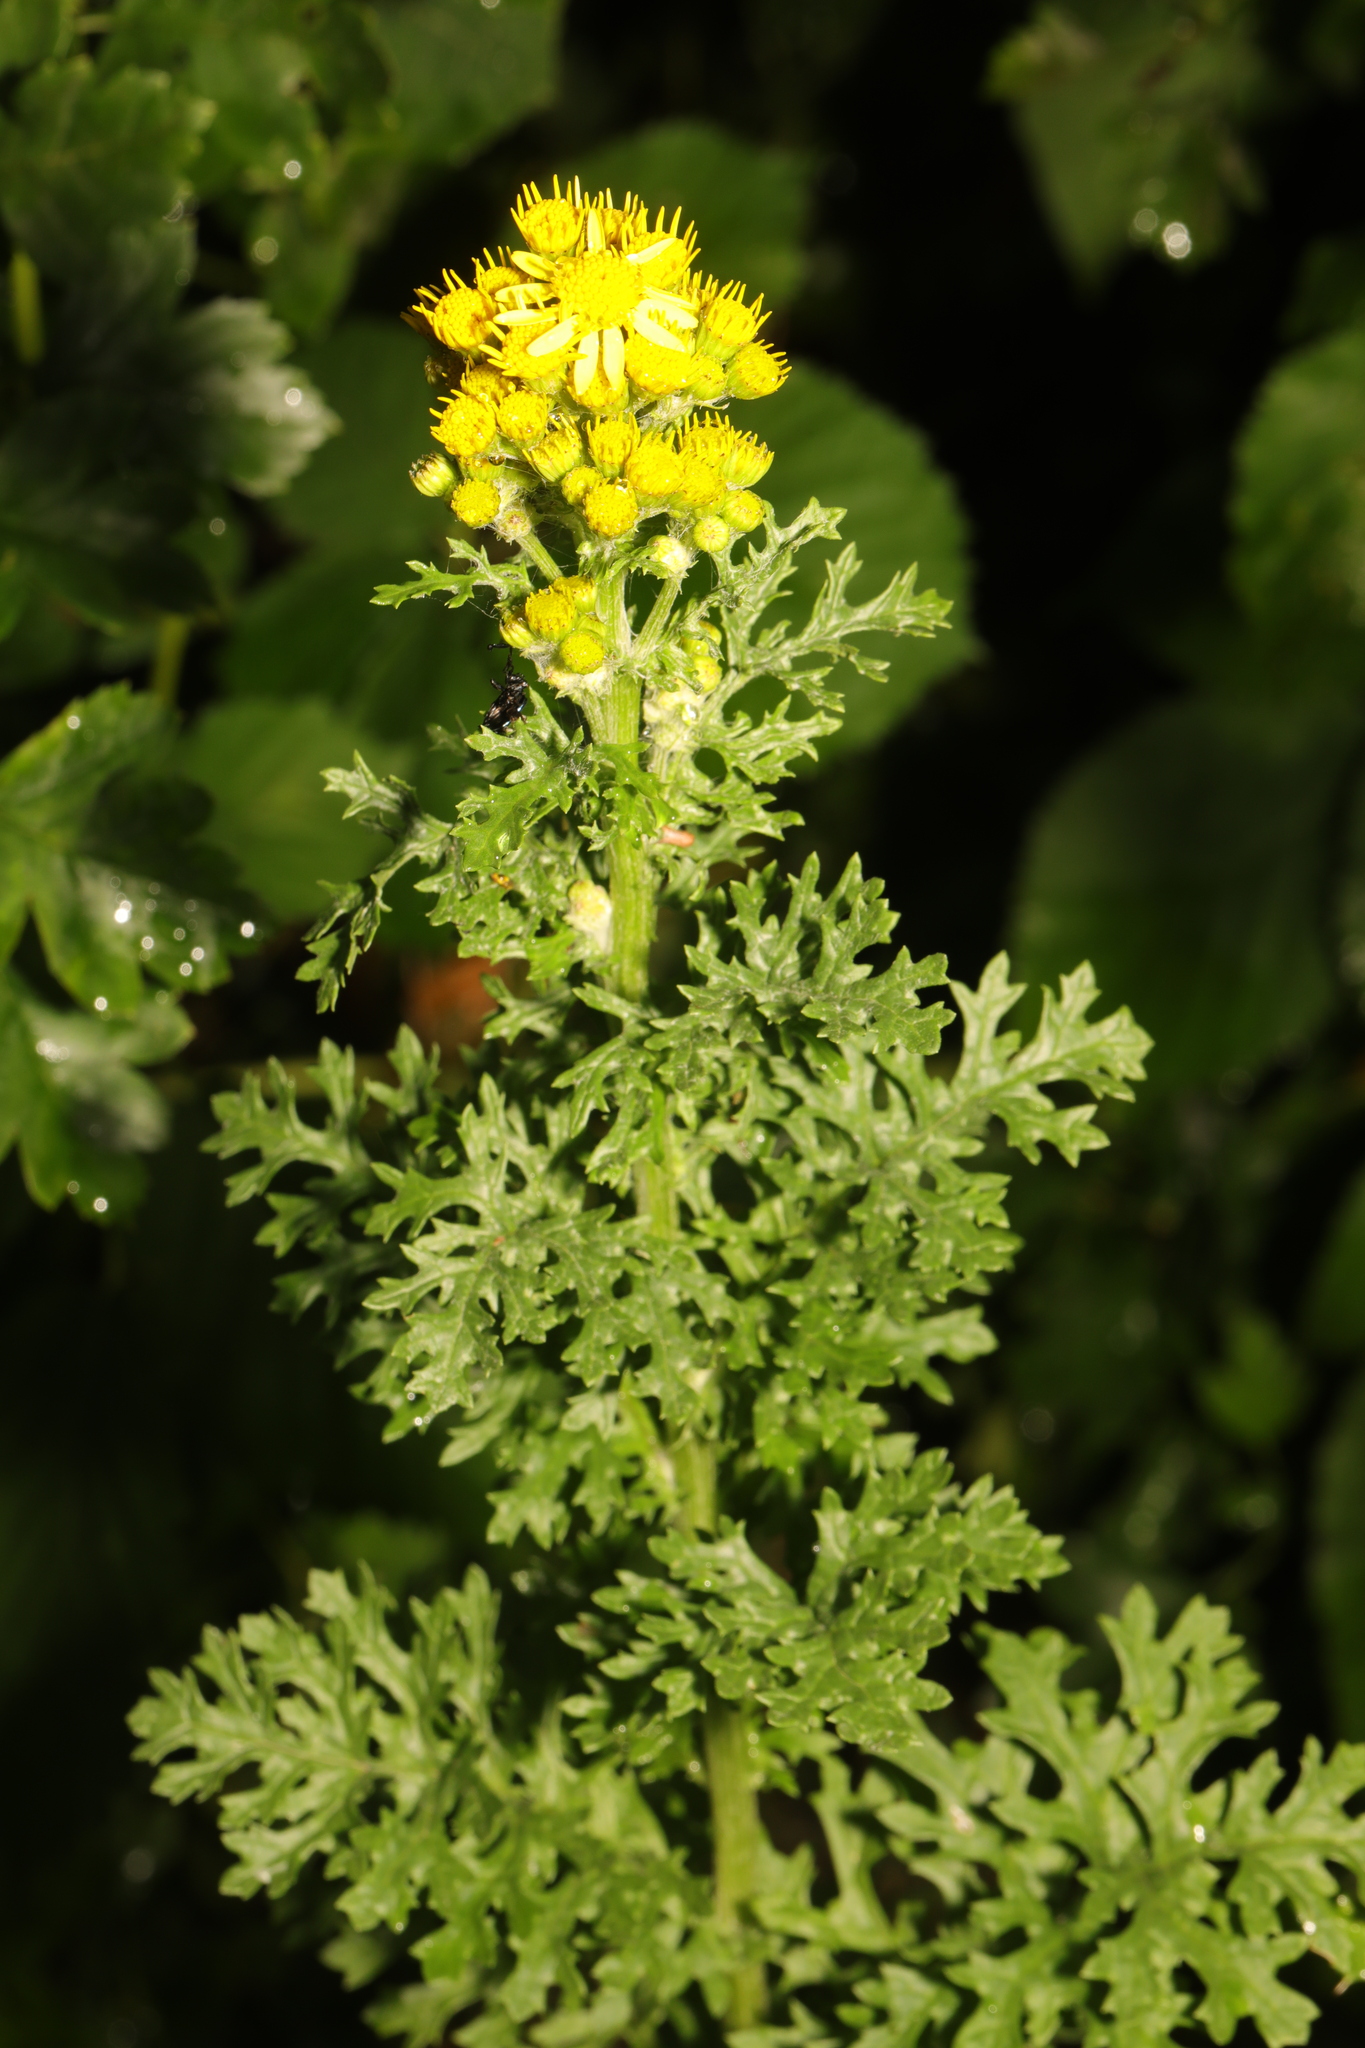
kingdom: Plantae
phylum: Tracheophyta
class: Magnoliopsida
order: Asterales
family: Asteraceae
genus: Jacobaea
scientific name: Jacobaea vulgaris
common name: Stinking willie
